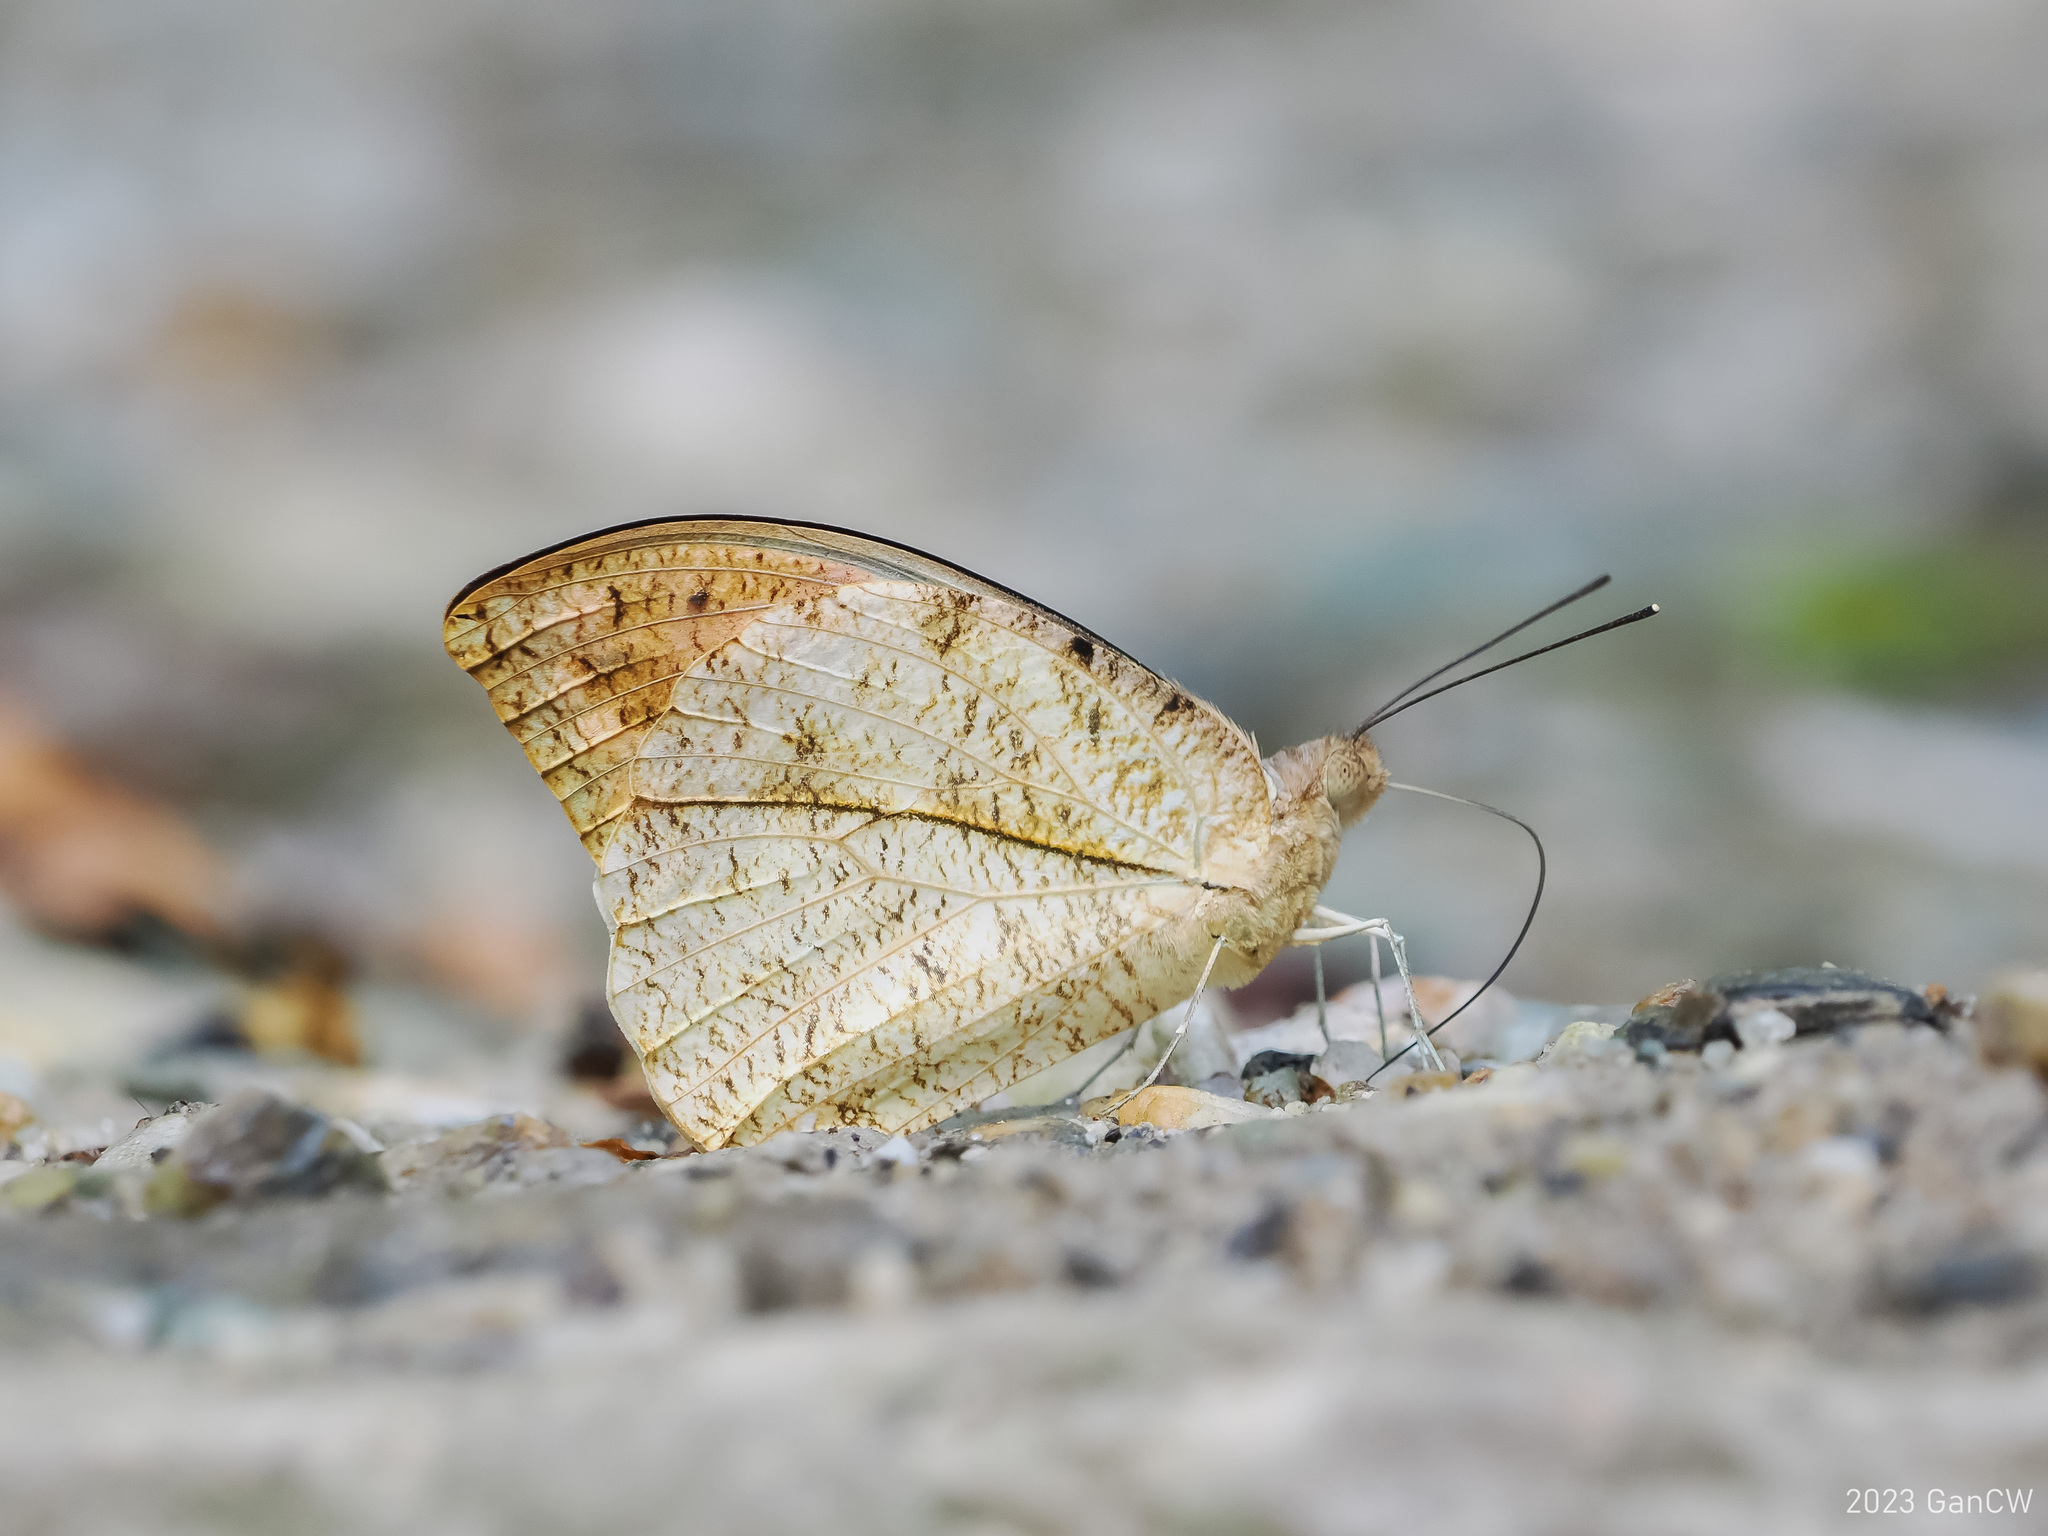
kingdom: Animalia
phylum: Arthropoda
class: Insecta
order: Lepidoptera
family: Pieridae
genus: Hebomoia
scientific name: Hebomoia glaucippe
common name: Great orange tip
